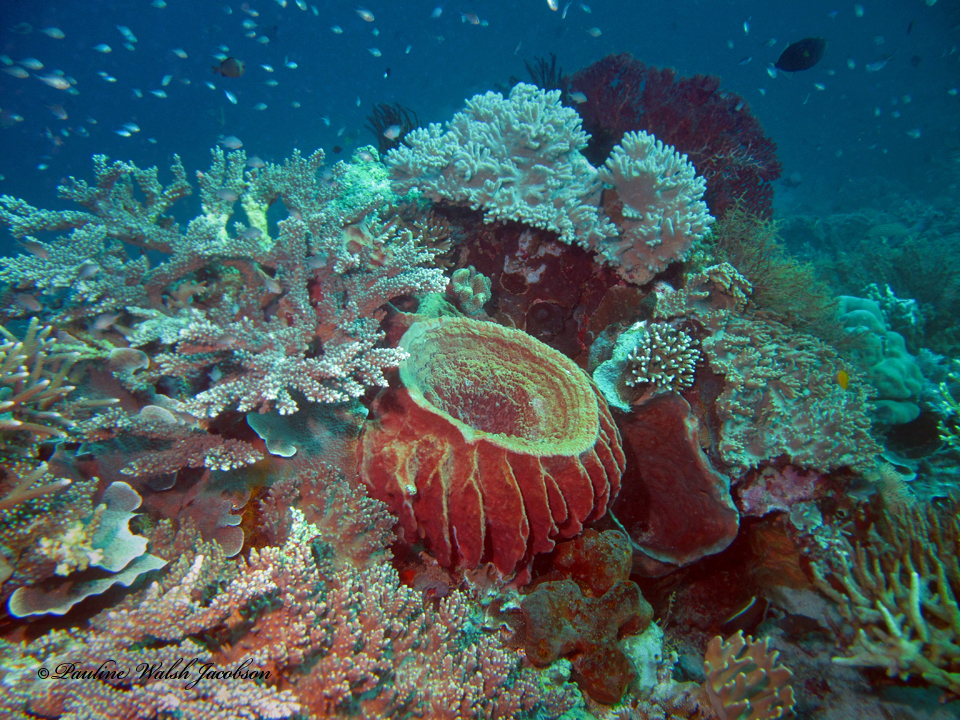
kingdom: Animalia
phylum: Porifera
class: Demospongiae
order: Haplosclerida
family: Petrosiidae
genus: Xestospongia
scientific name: Xestospongia testudinaria
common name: Barrel sponge
